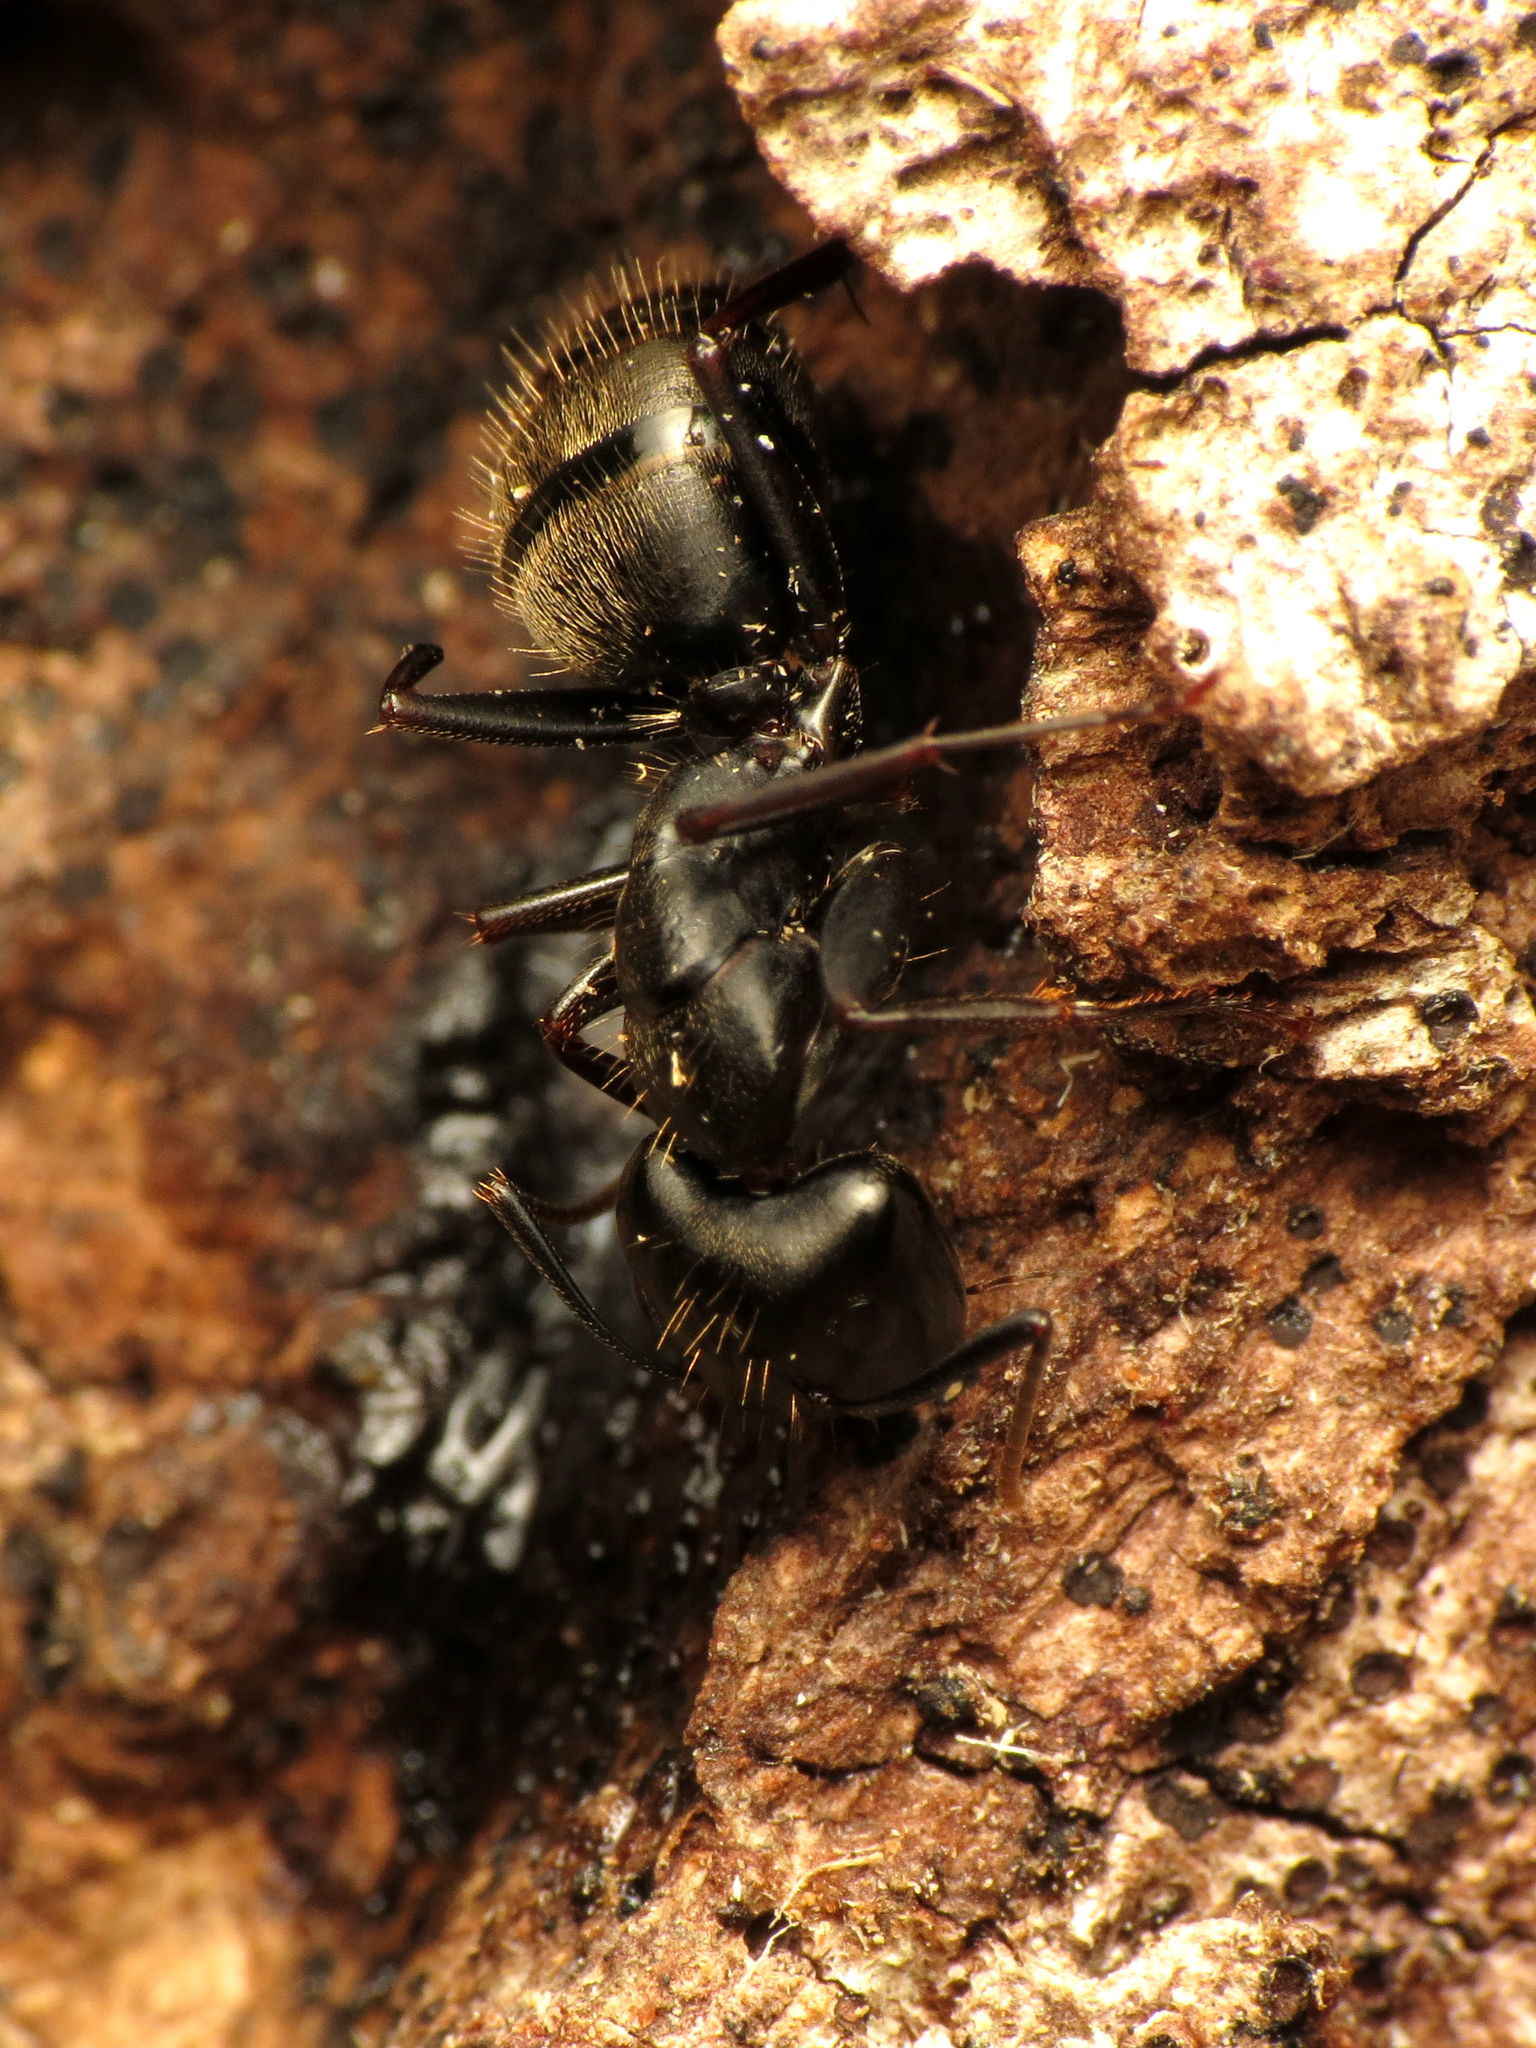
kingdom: Animalia
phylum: Arthropoda
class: Insecta
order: Hymenoptera
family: Formicidae
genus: Camponotus
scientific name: Camponotus pennsylvanicus
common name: Black carpenter ant
